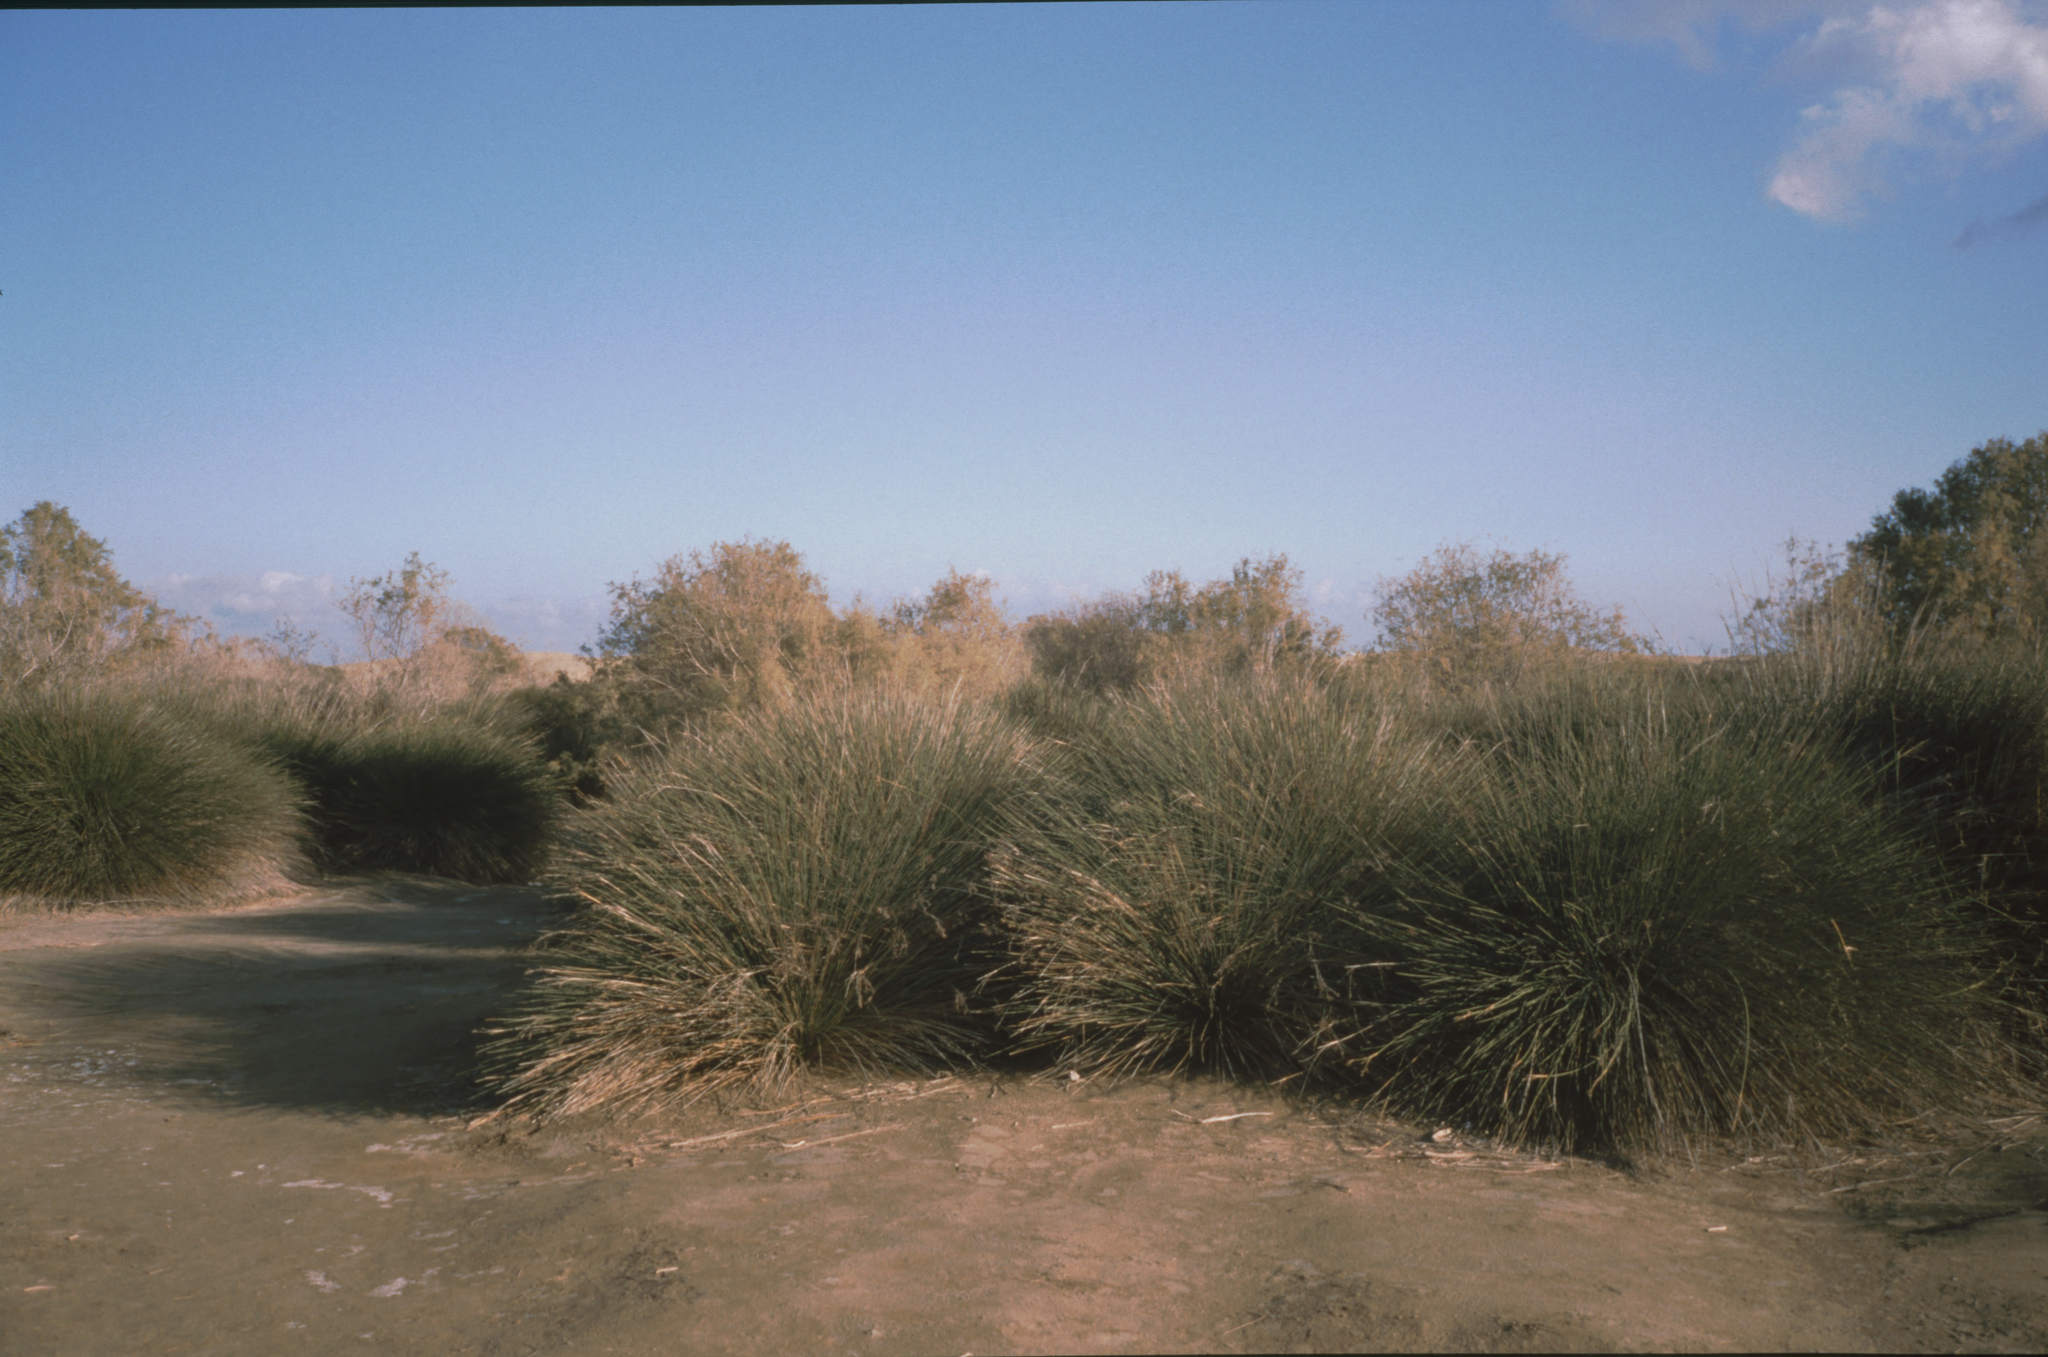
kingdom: Plantae
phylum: Tracheophyta
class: Liliopsida
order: Poales
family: Juncaceae
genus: Juncus
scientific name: Juncus acutus
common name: Sharp rush
